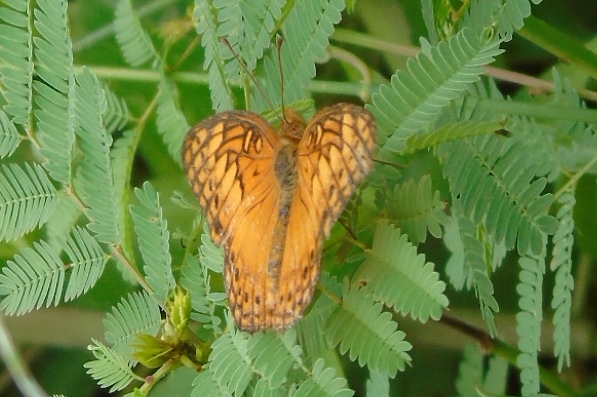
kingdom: Animalia
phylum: Arthropoda
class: Insecta
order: Lepidoptera
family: Nymphalidae
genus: Euptoieta
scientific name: Euptoieta hegesia
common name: Mexican fritillary
